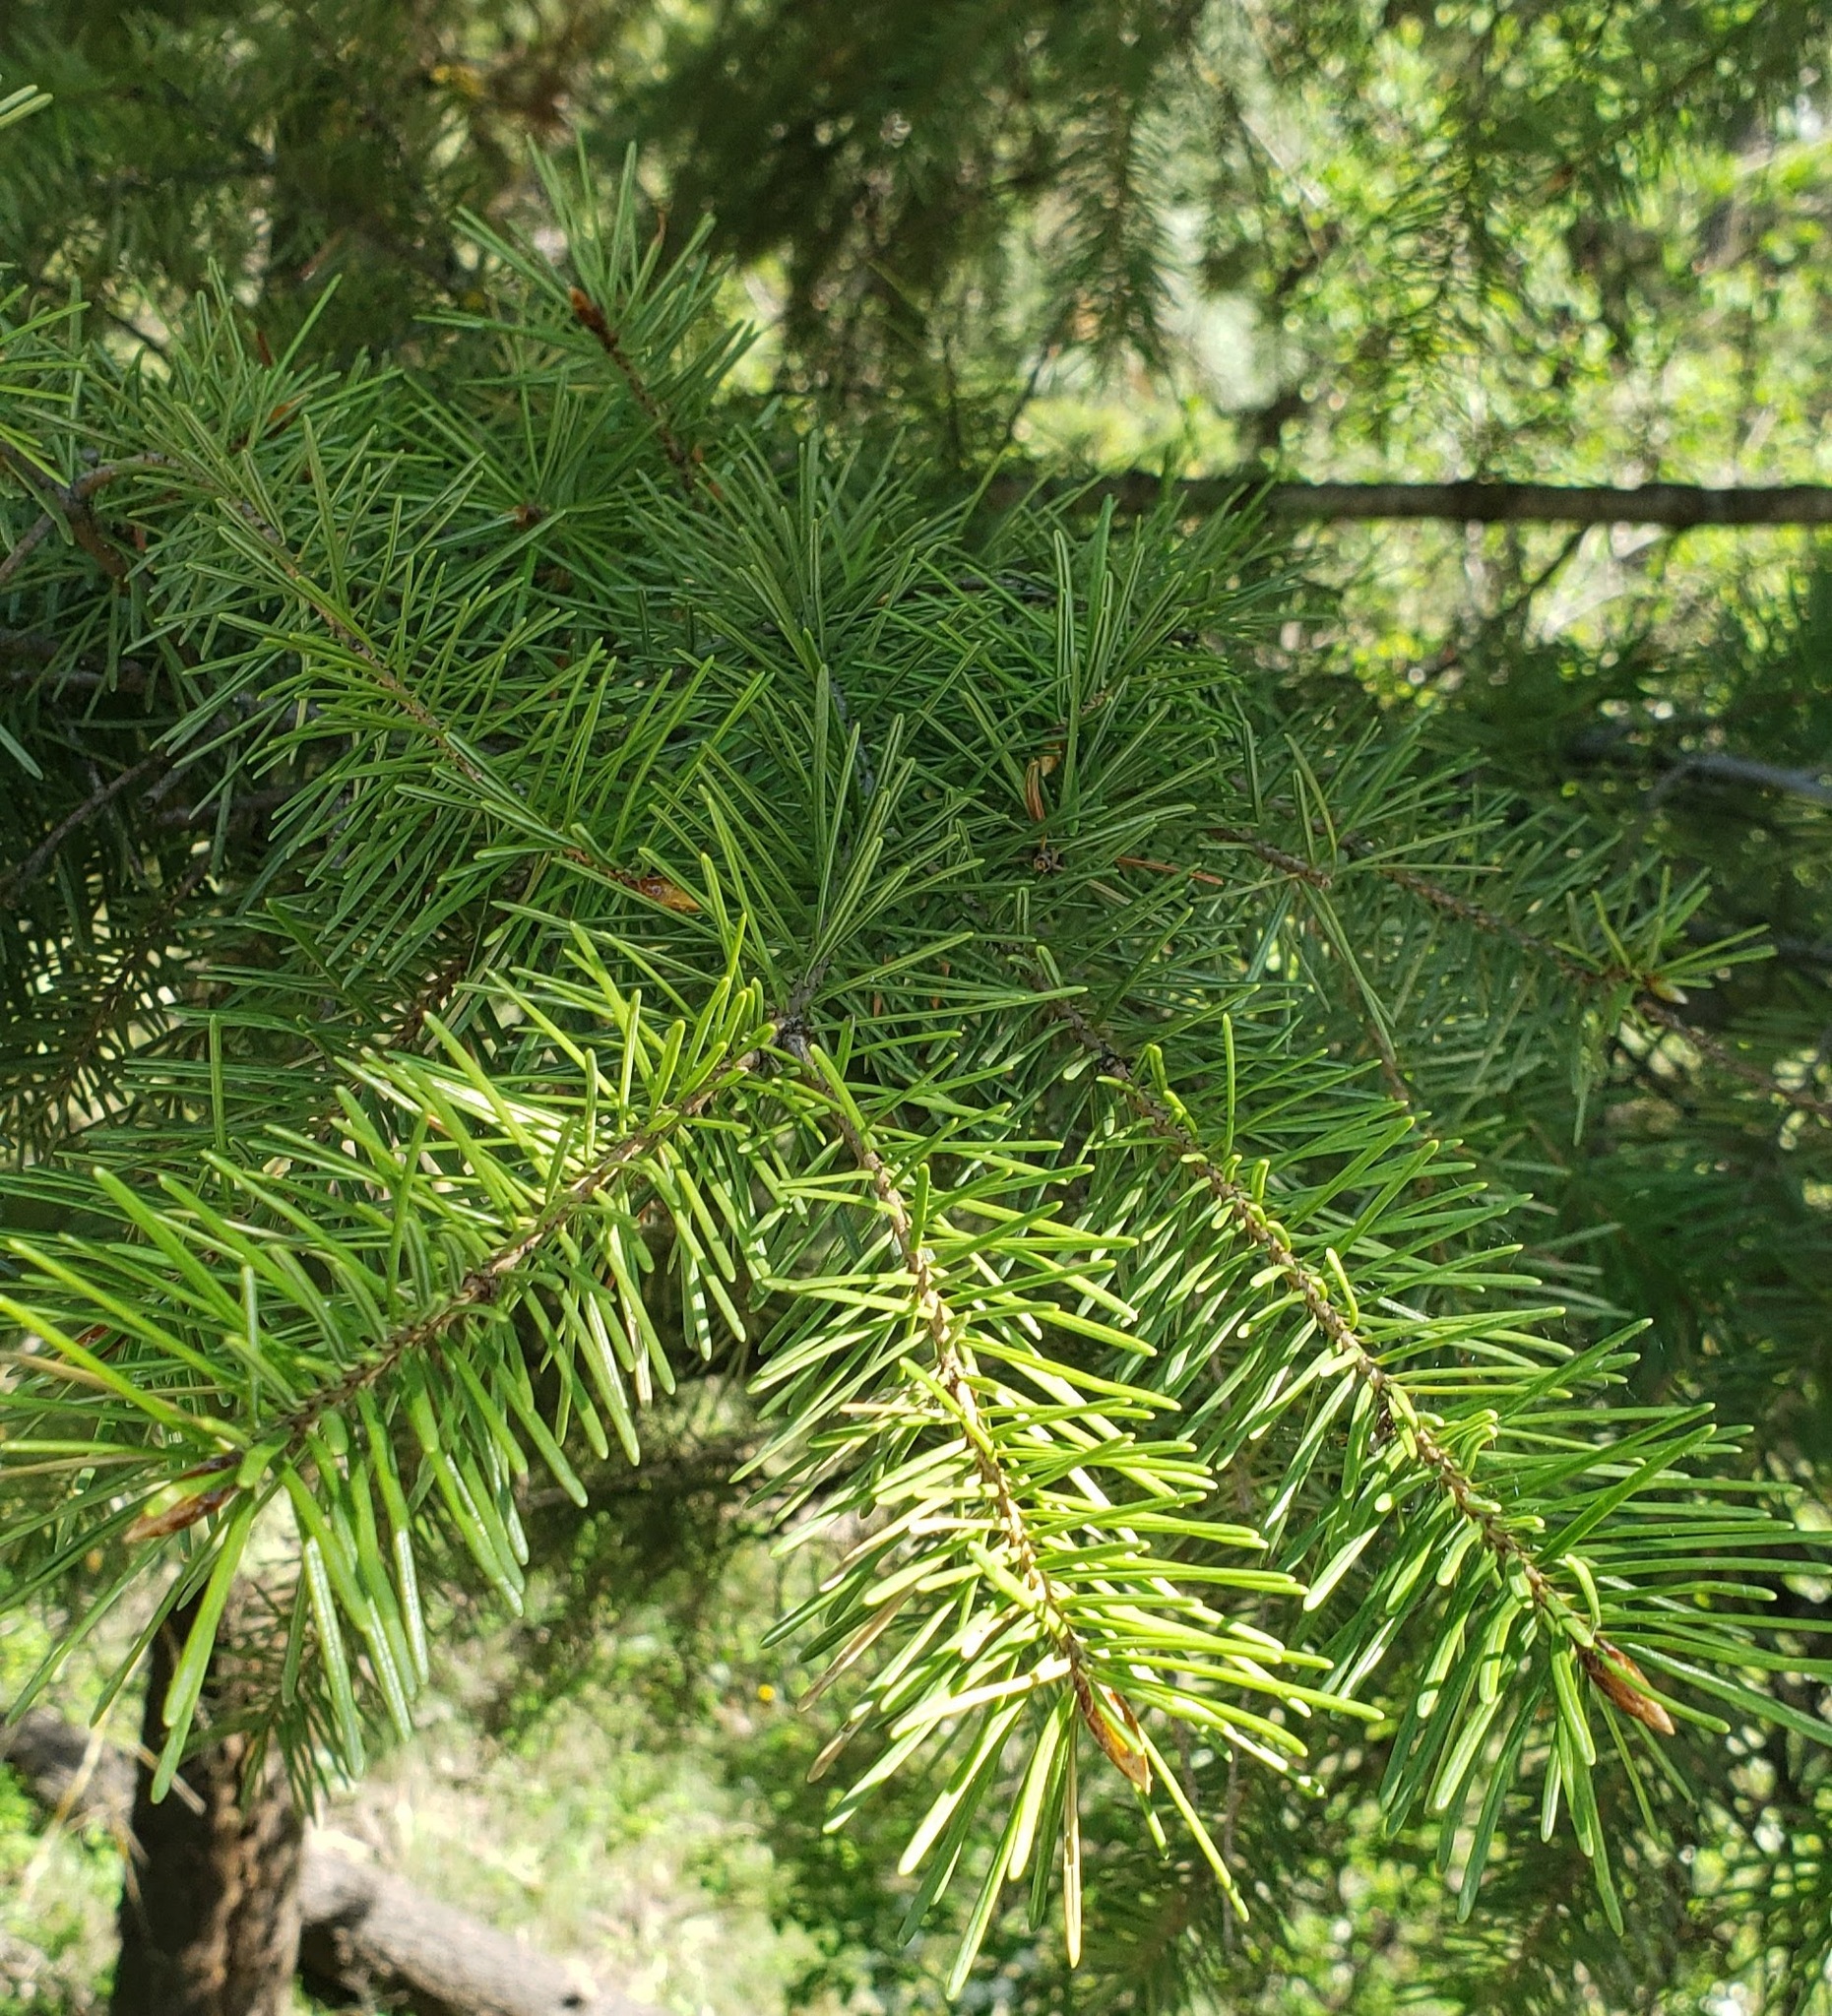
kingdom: Plantae
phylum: Tracheophyta
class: Pinopsida
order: Pinales
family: Pinaceae
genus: Pseudotsuga
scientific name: Pseudotsuga menziesii
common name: Douglas fir
